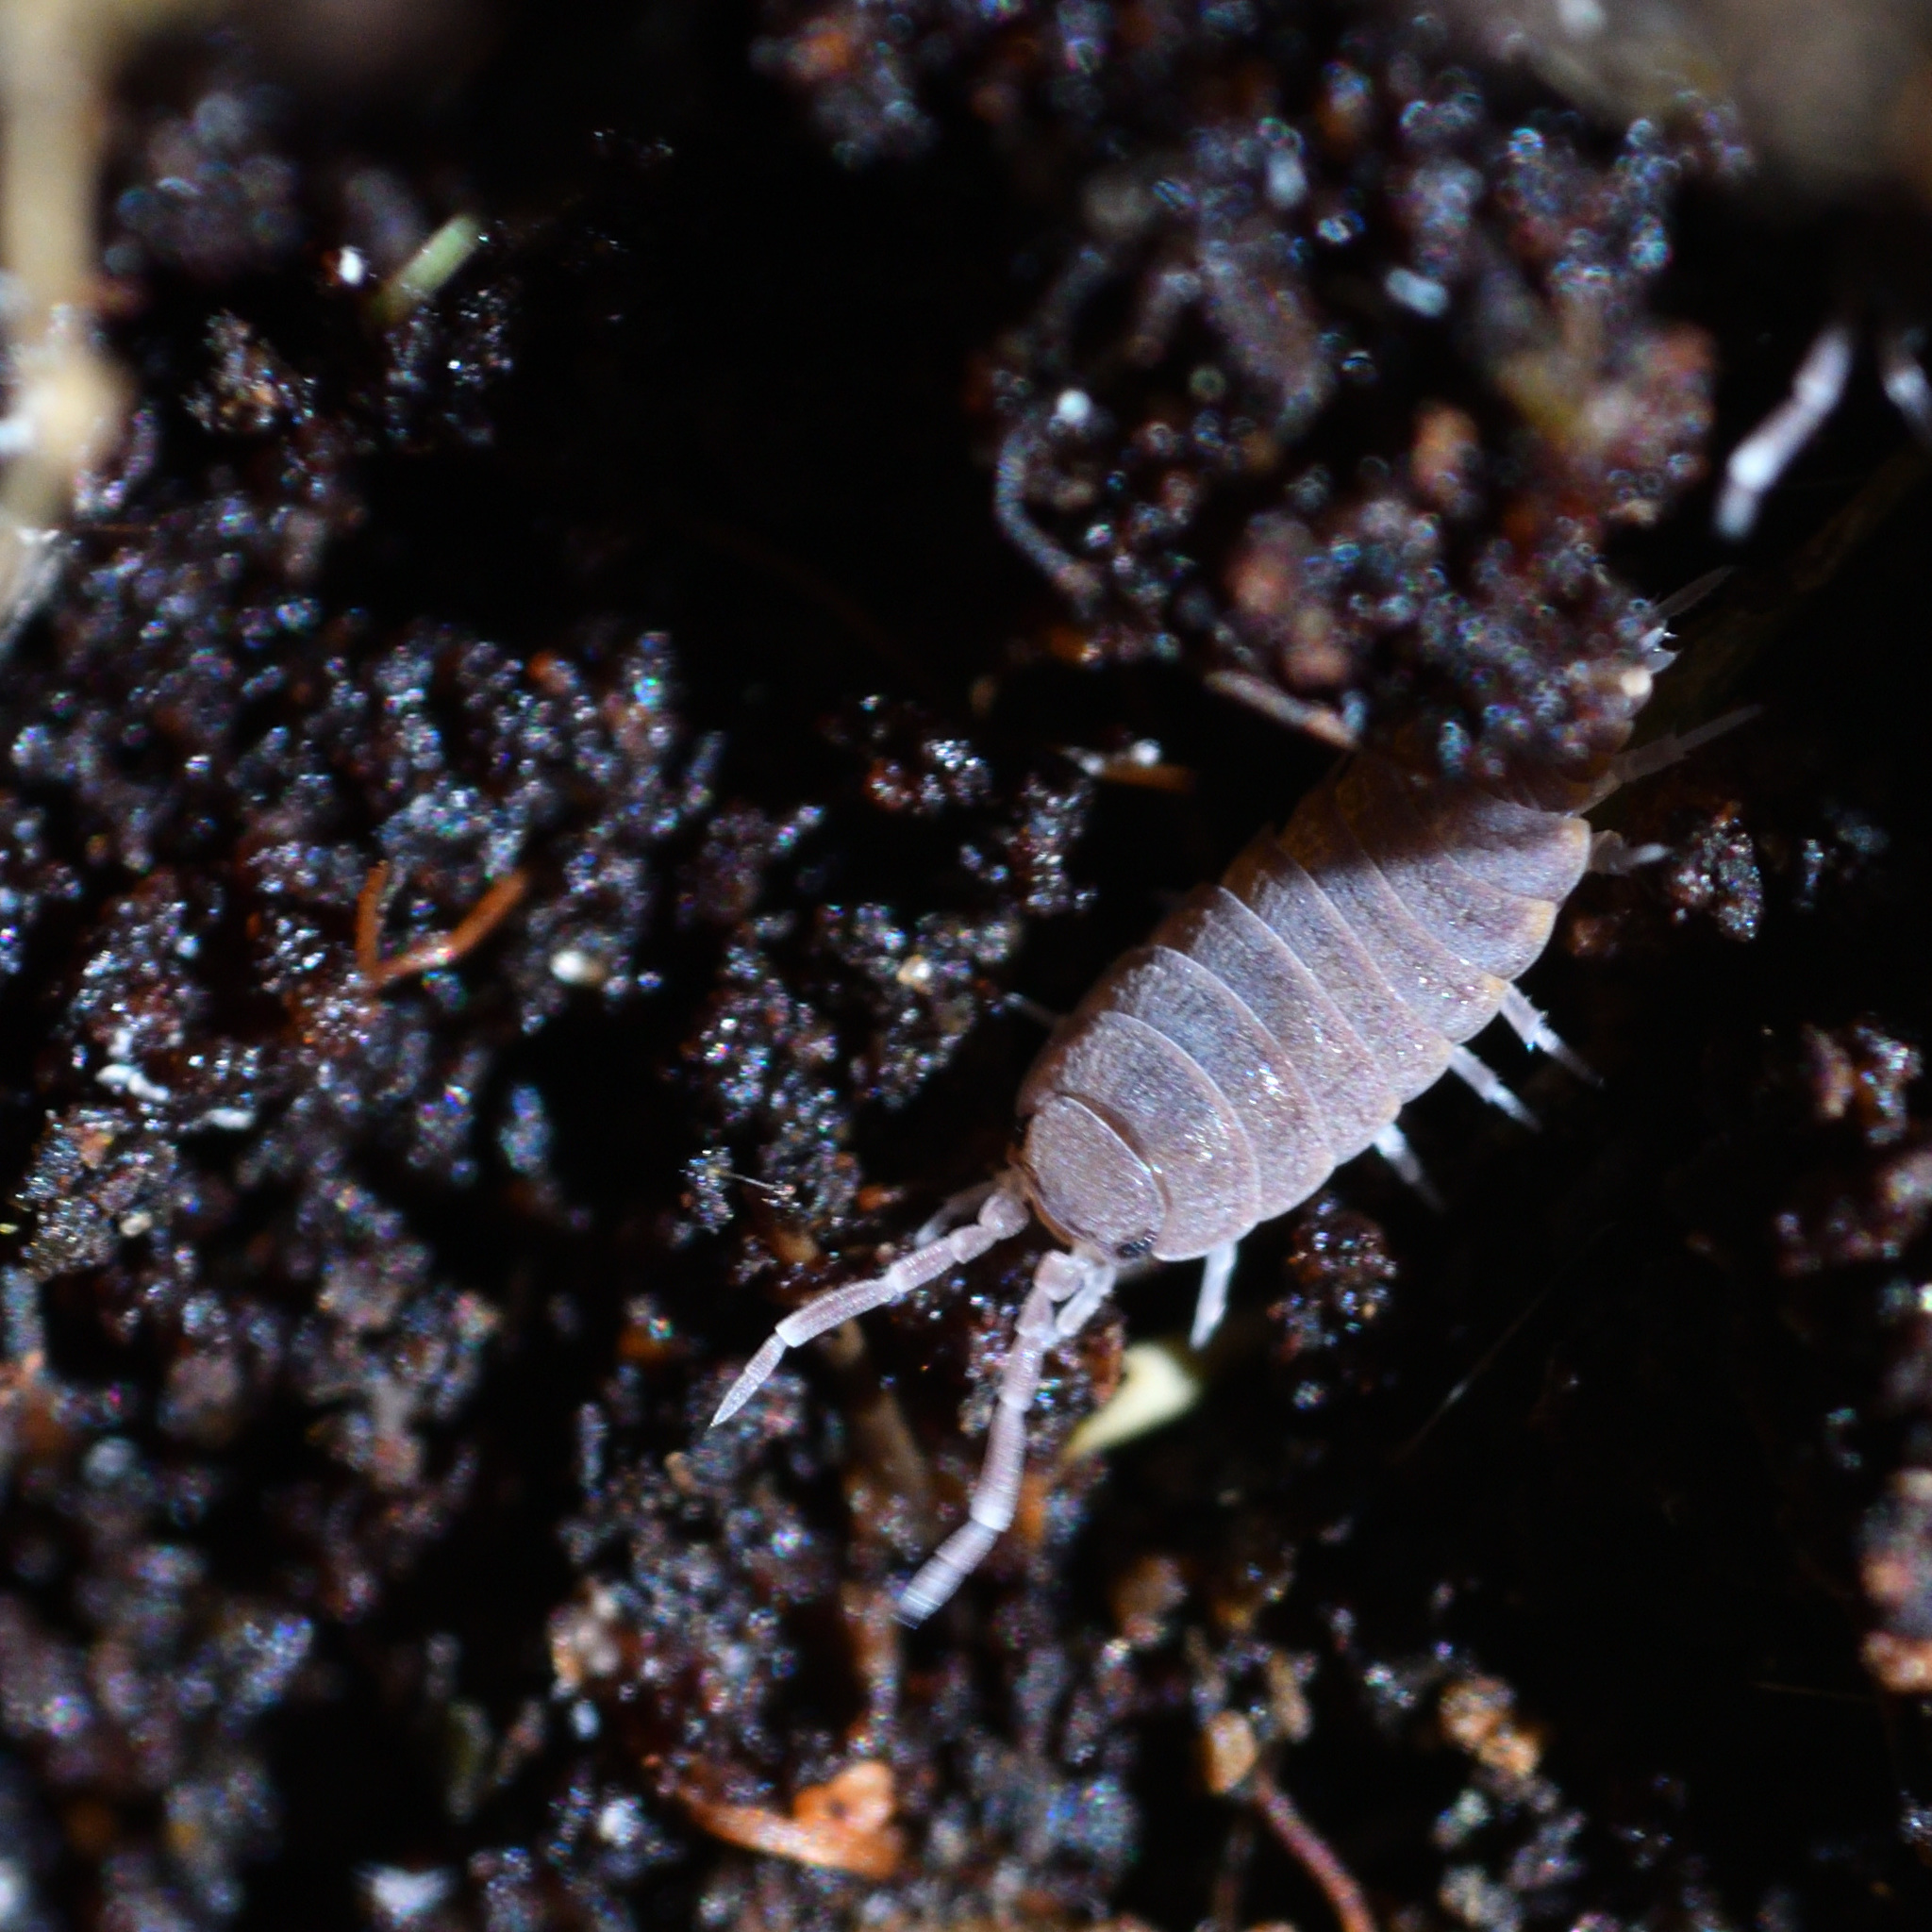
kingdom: Animalia
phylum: Arthropoda
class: Malacostraca
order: Isopoda
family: Porcellionidae
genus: Porcellionides
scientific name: Porcellionides pruinosus
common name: Plum woodlouse
